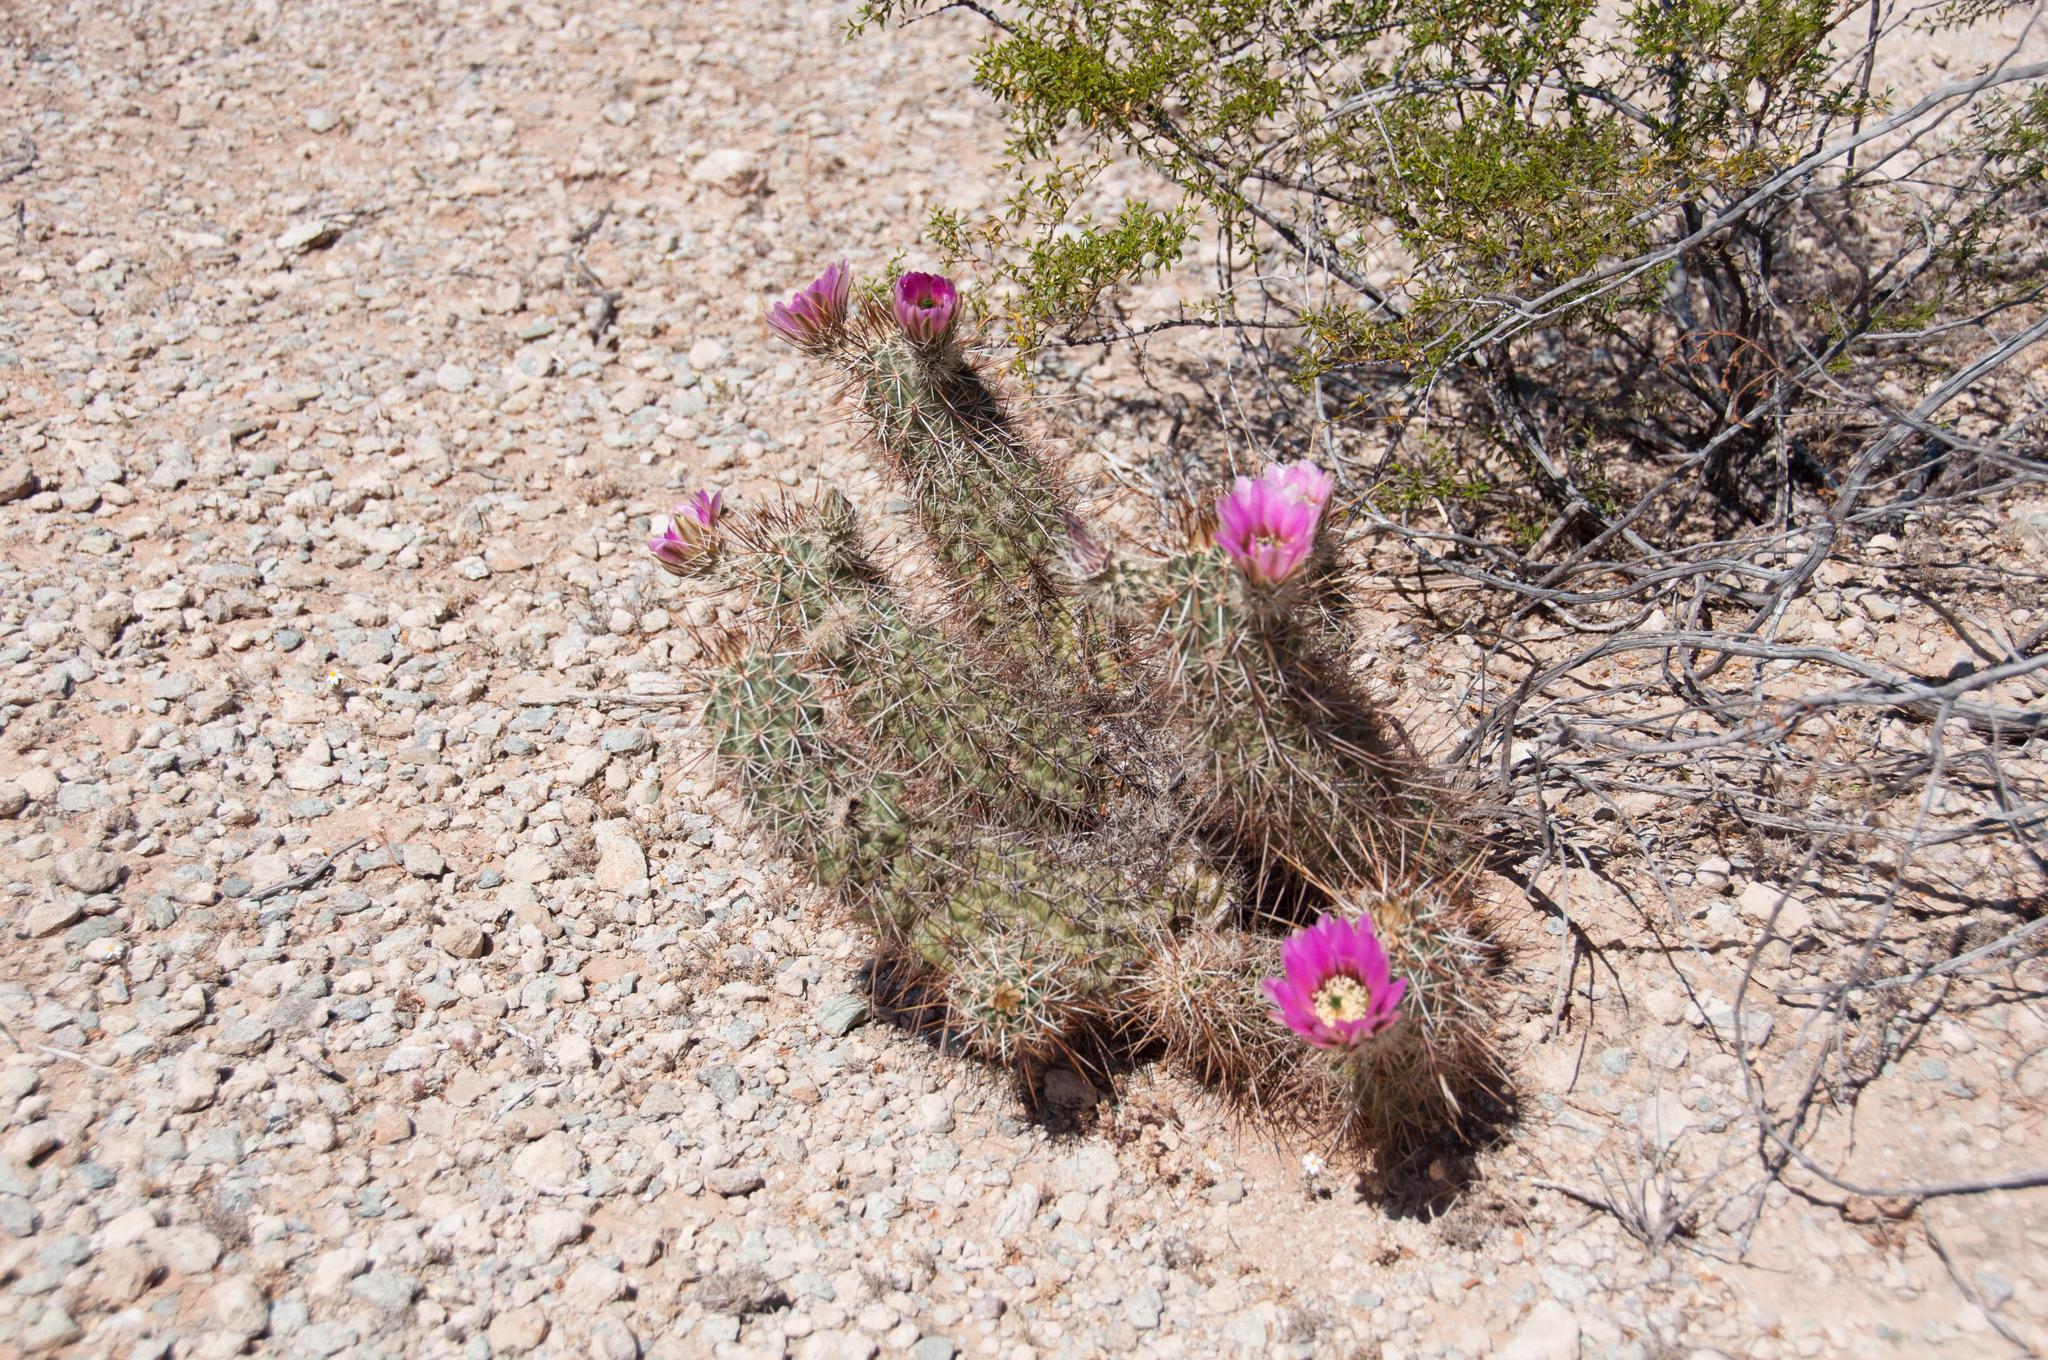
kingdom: Plantae
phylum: Tracheophyta
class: Magnoliopsida
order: Caryophyllales
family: Cactaceae
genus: Echinocereus
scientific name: Echinocereus engelmannii
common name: Engelmann's hedgehog cactus
